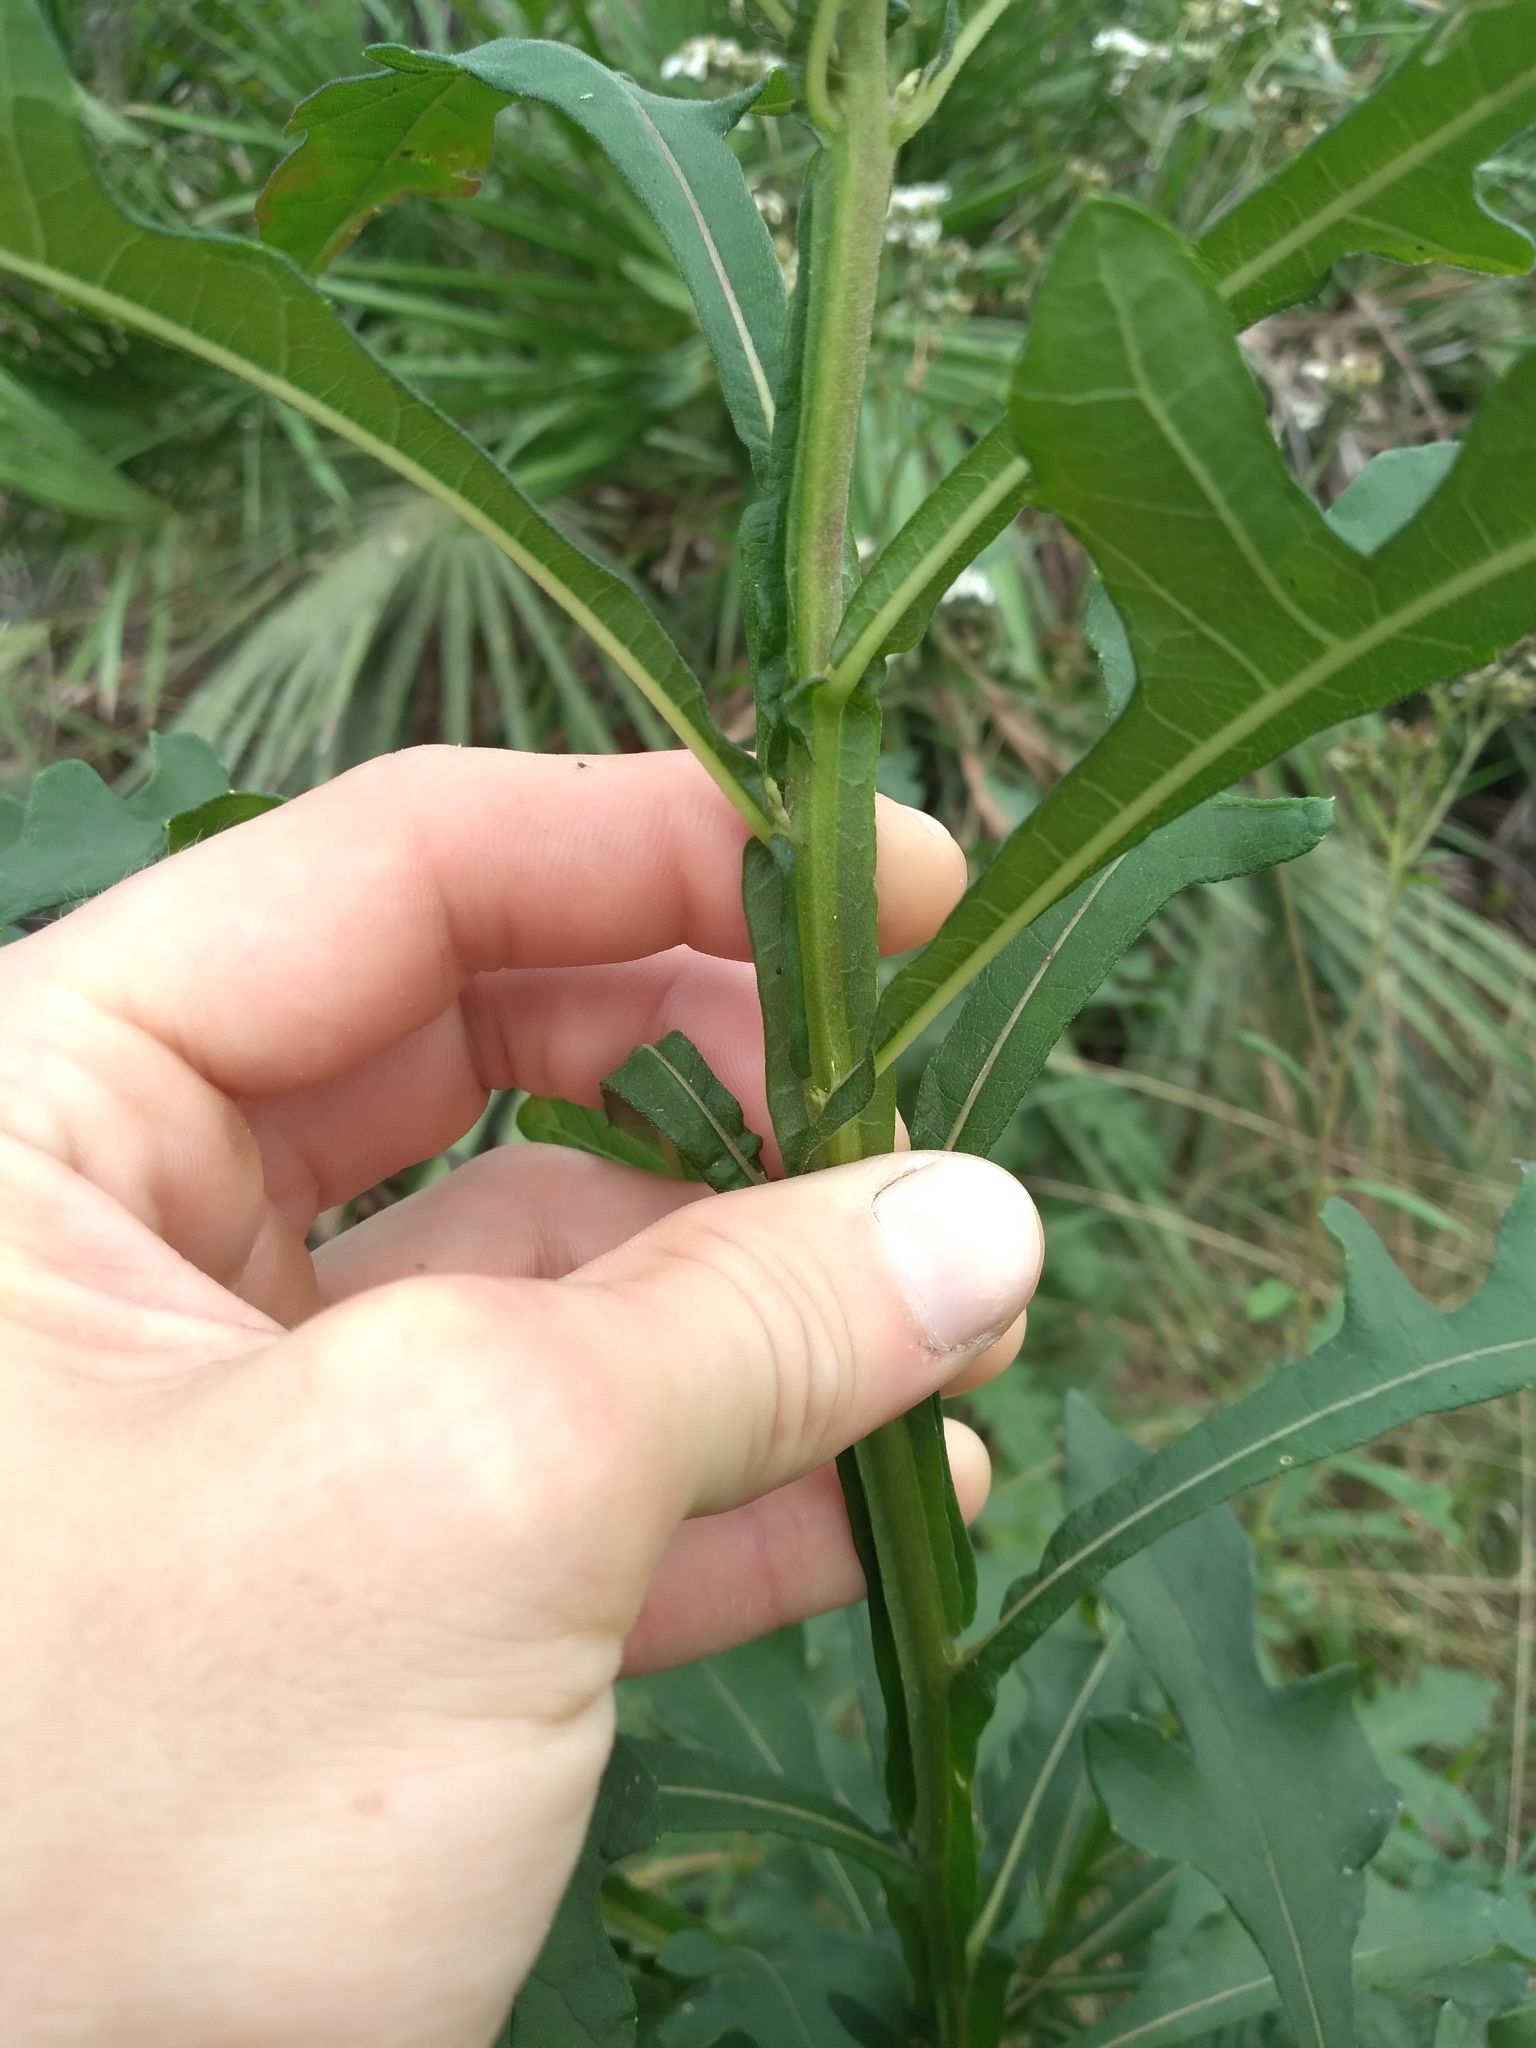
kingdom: Plantae
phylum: Tracheophyta
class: Magnoliopsida
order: Asterales
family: Asteraceae
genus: Verbesina
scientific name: Verbesina virginica
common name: Frostweed
